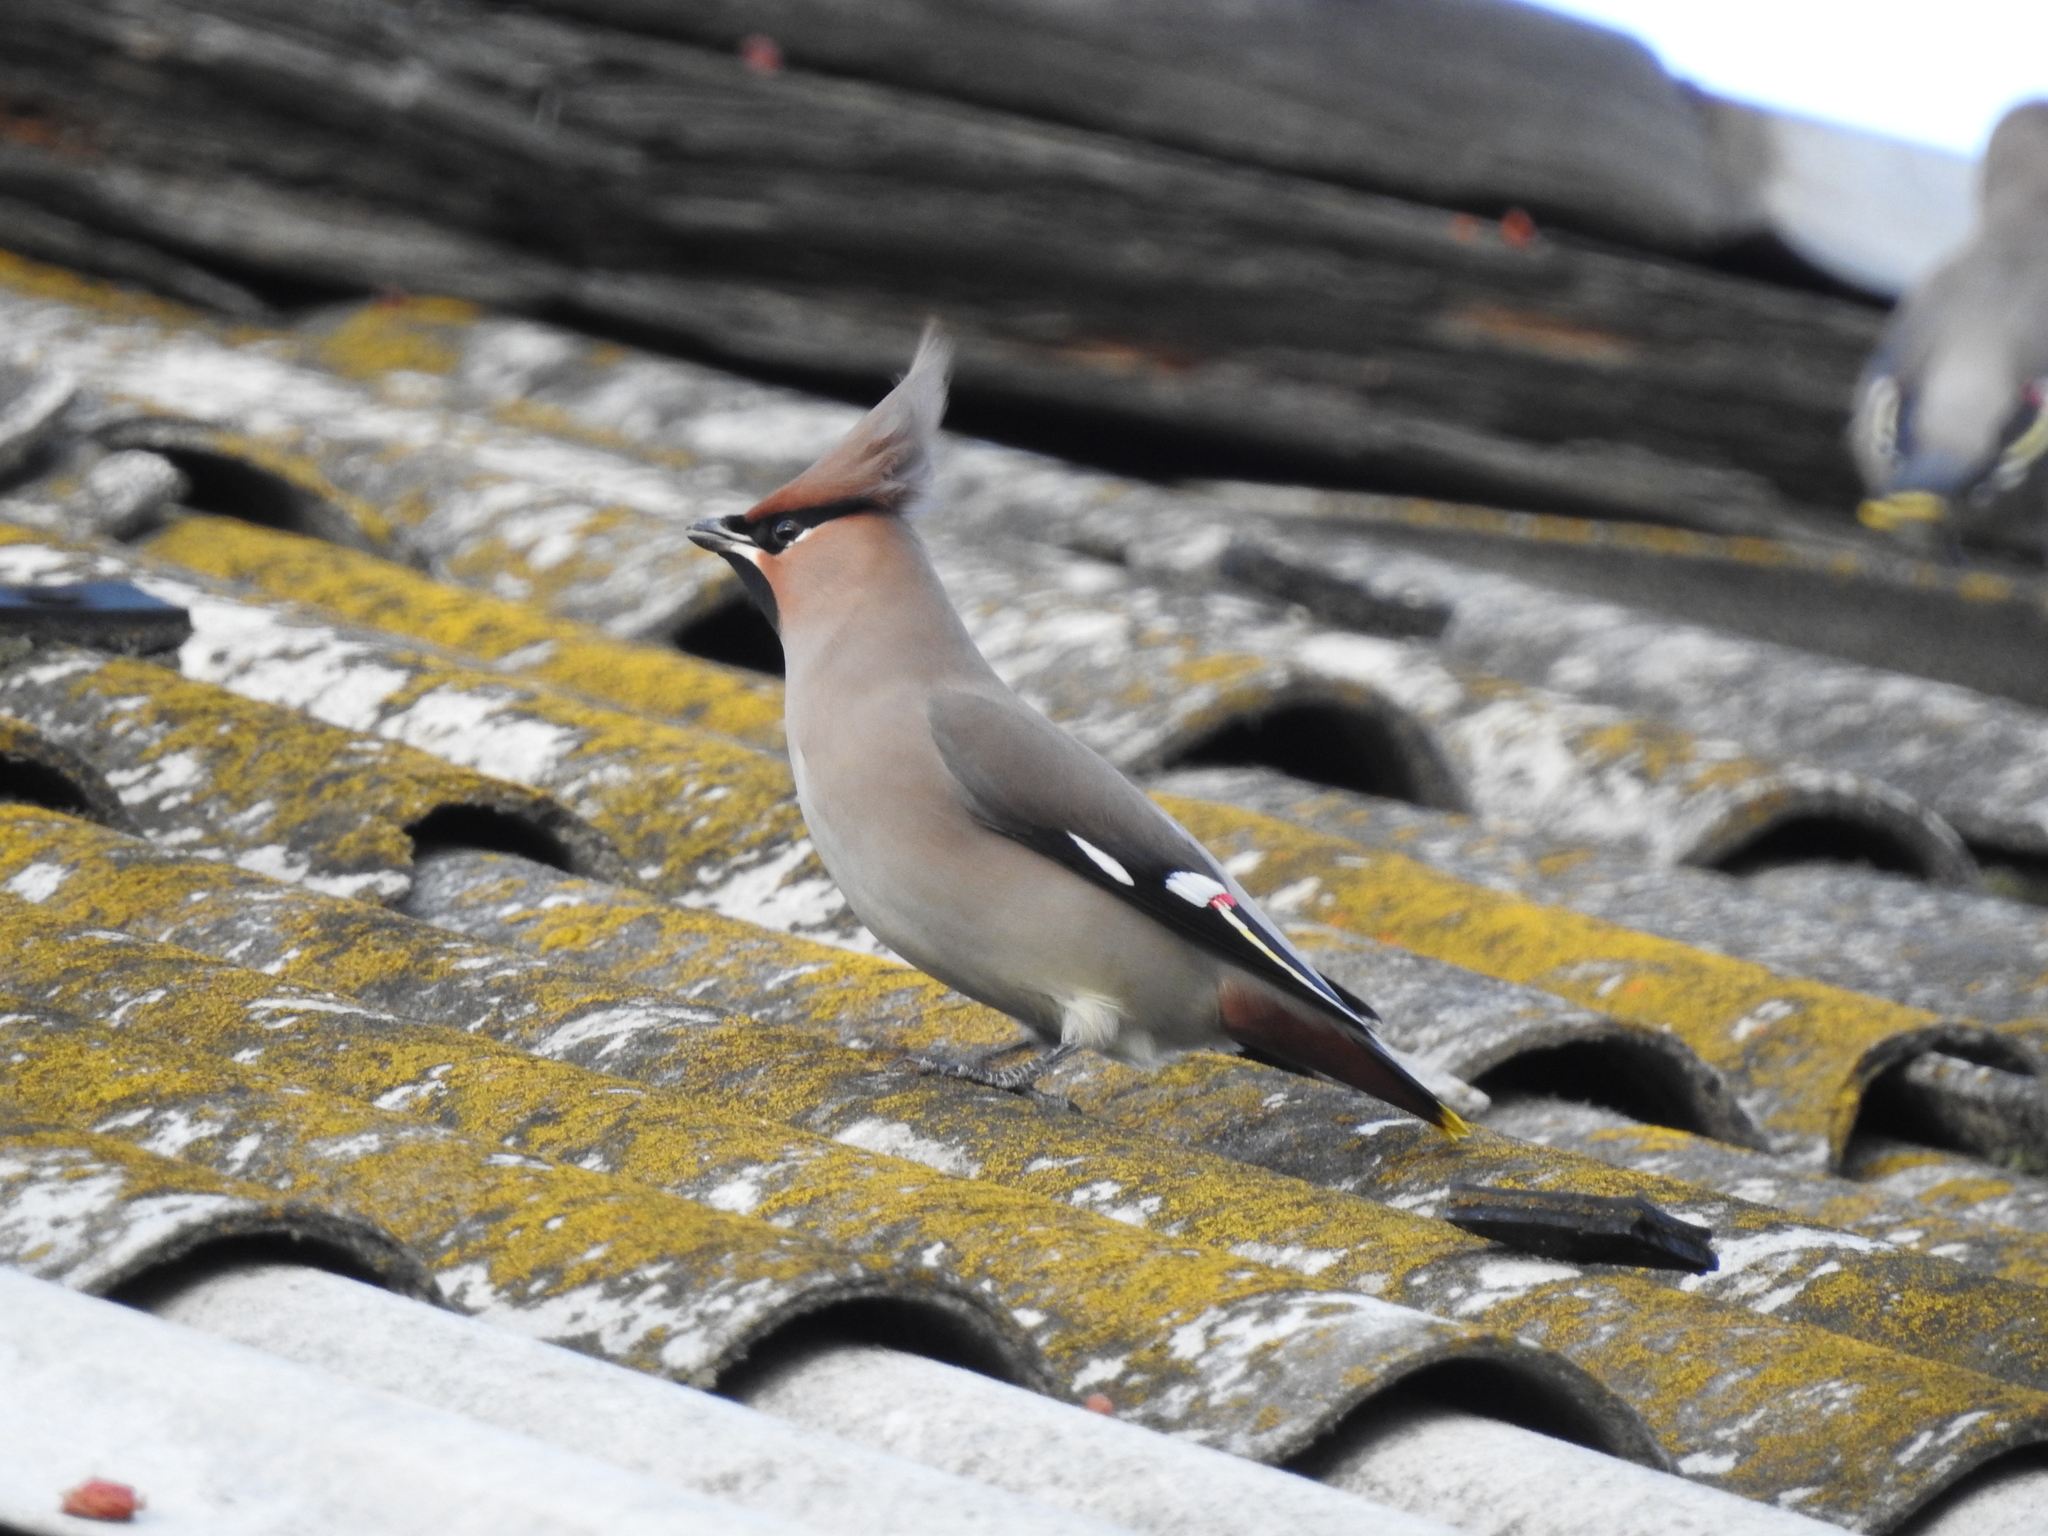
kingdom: Animalia
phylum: Chordata
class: Aves
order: Passeriformes
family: Bombycillidae
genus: Bombycilla
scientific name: Bombycilla garrulus
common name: Bohemian waxwing
